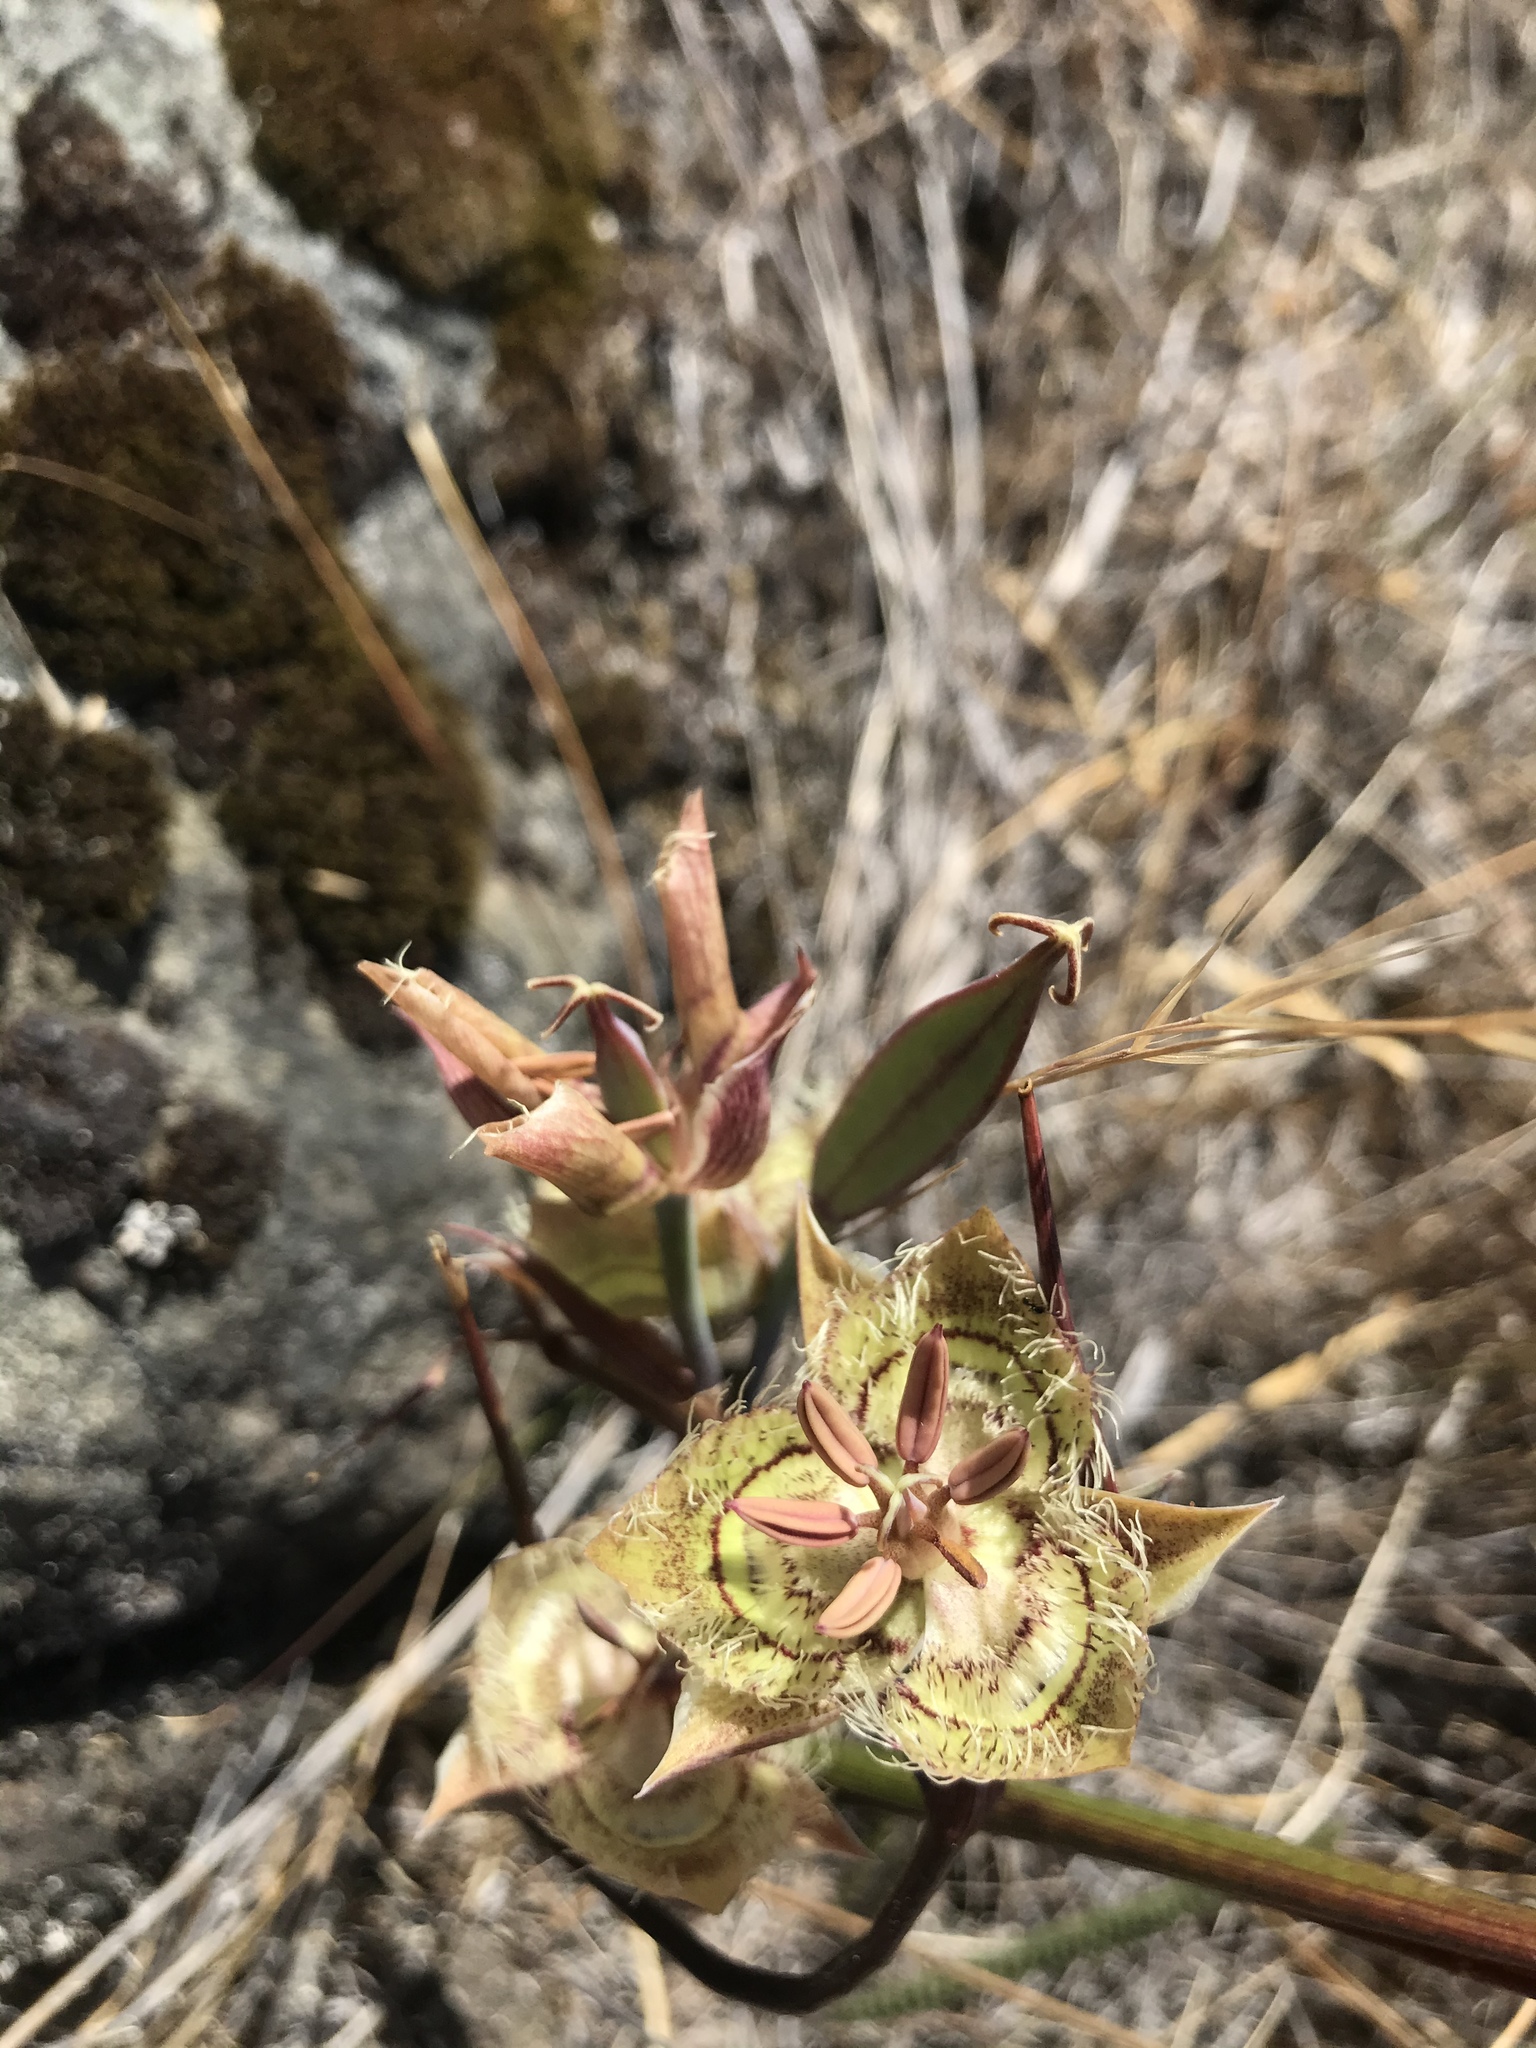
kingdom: Plantae
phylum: Tracheophyta
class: Liliopsida
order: Liliales
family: Liliaceae
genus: Calochortus
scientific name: Calochortus tiburonensis
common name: Tiburon mariposa-lily
